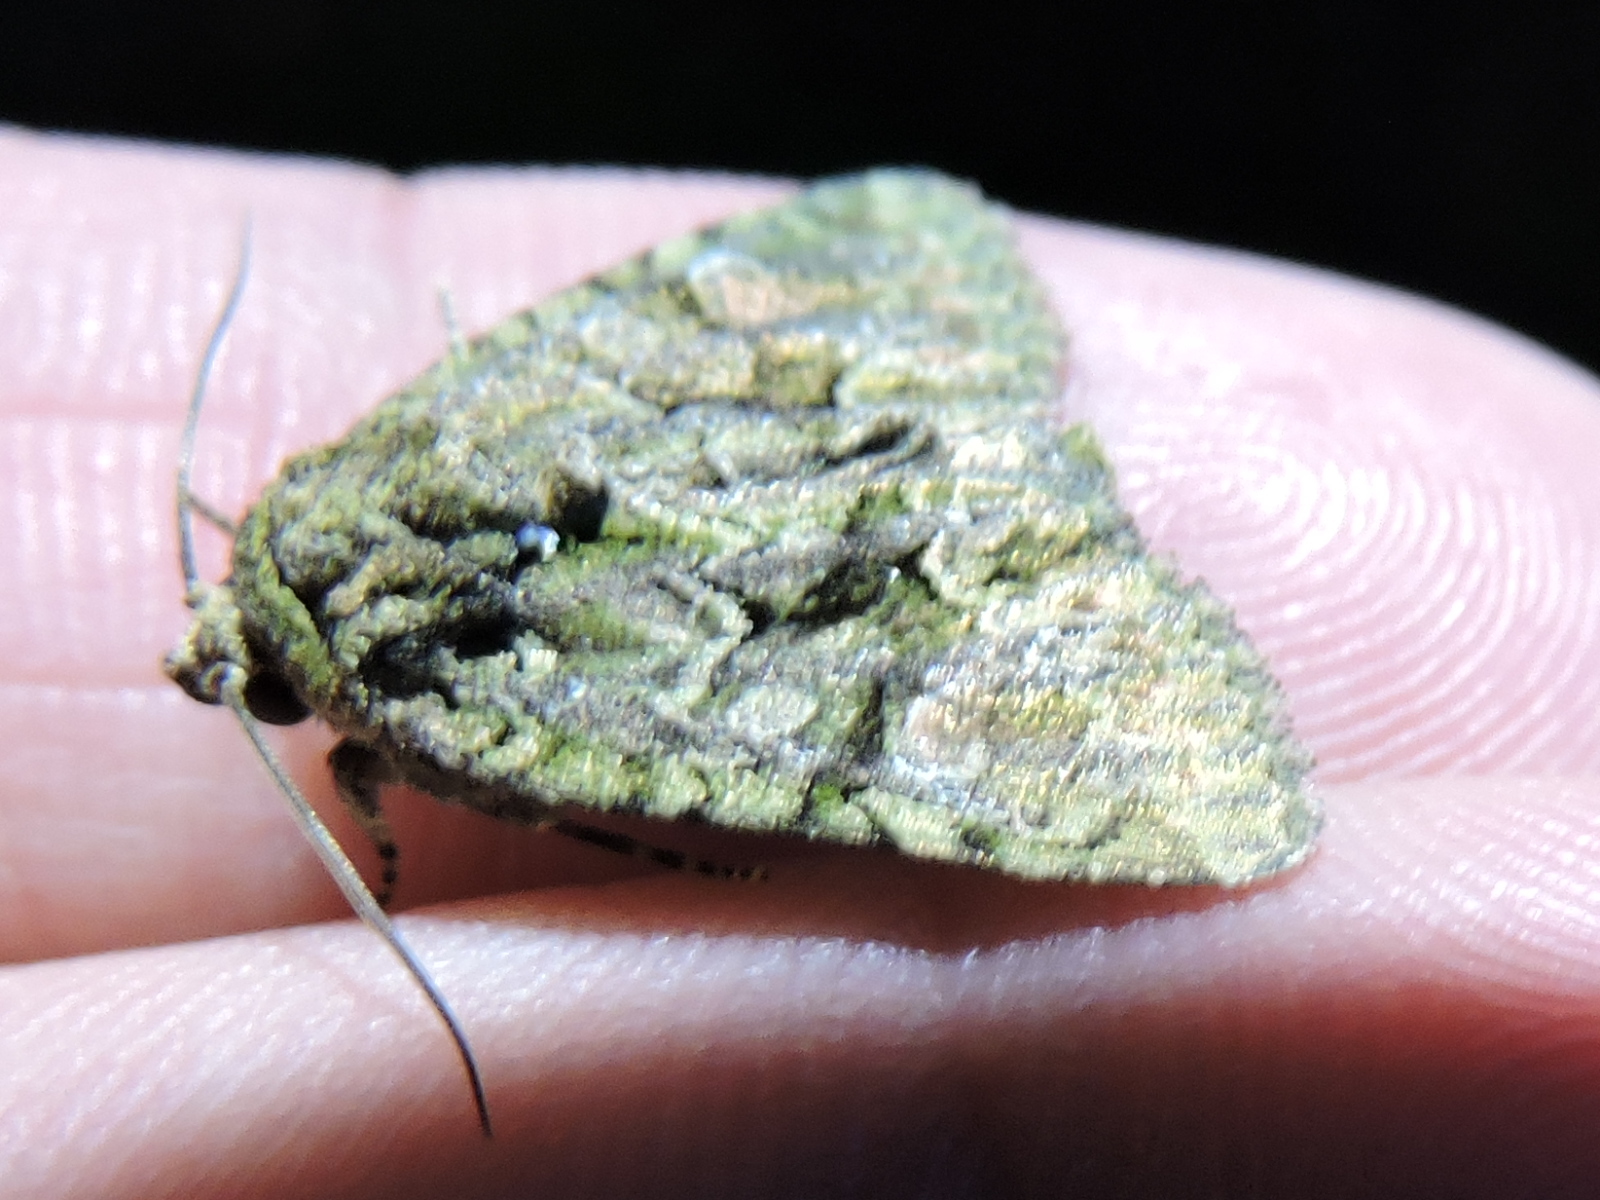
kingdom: Animalia
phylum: Arthropoda
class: Insecta
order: Lepidoptera
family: Noctuidae
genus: Phosphila
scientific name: Phosphila miselioides
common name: Spotted phosphila moth
